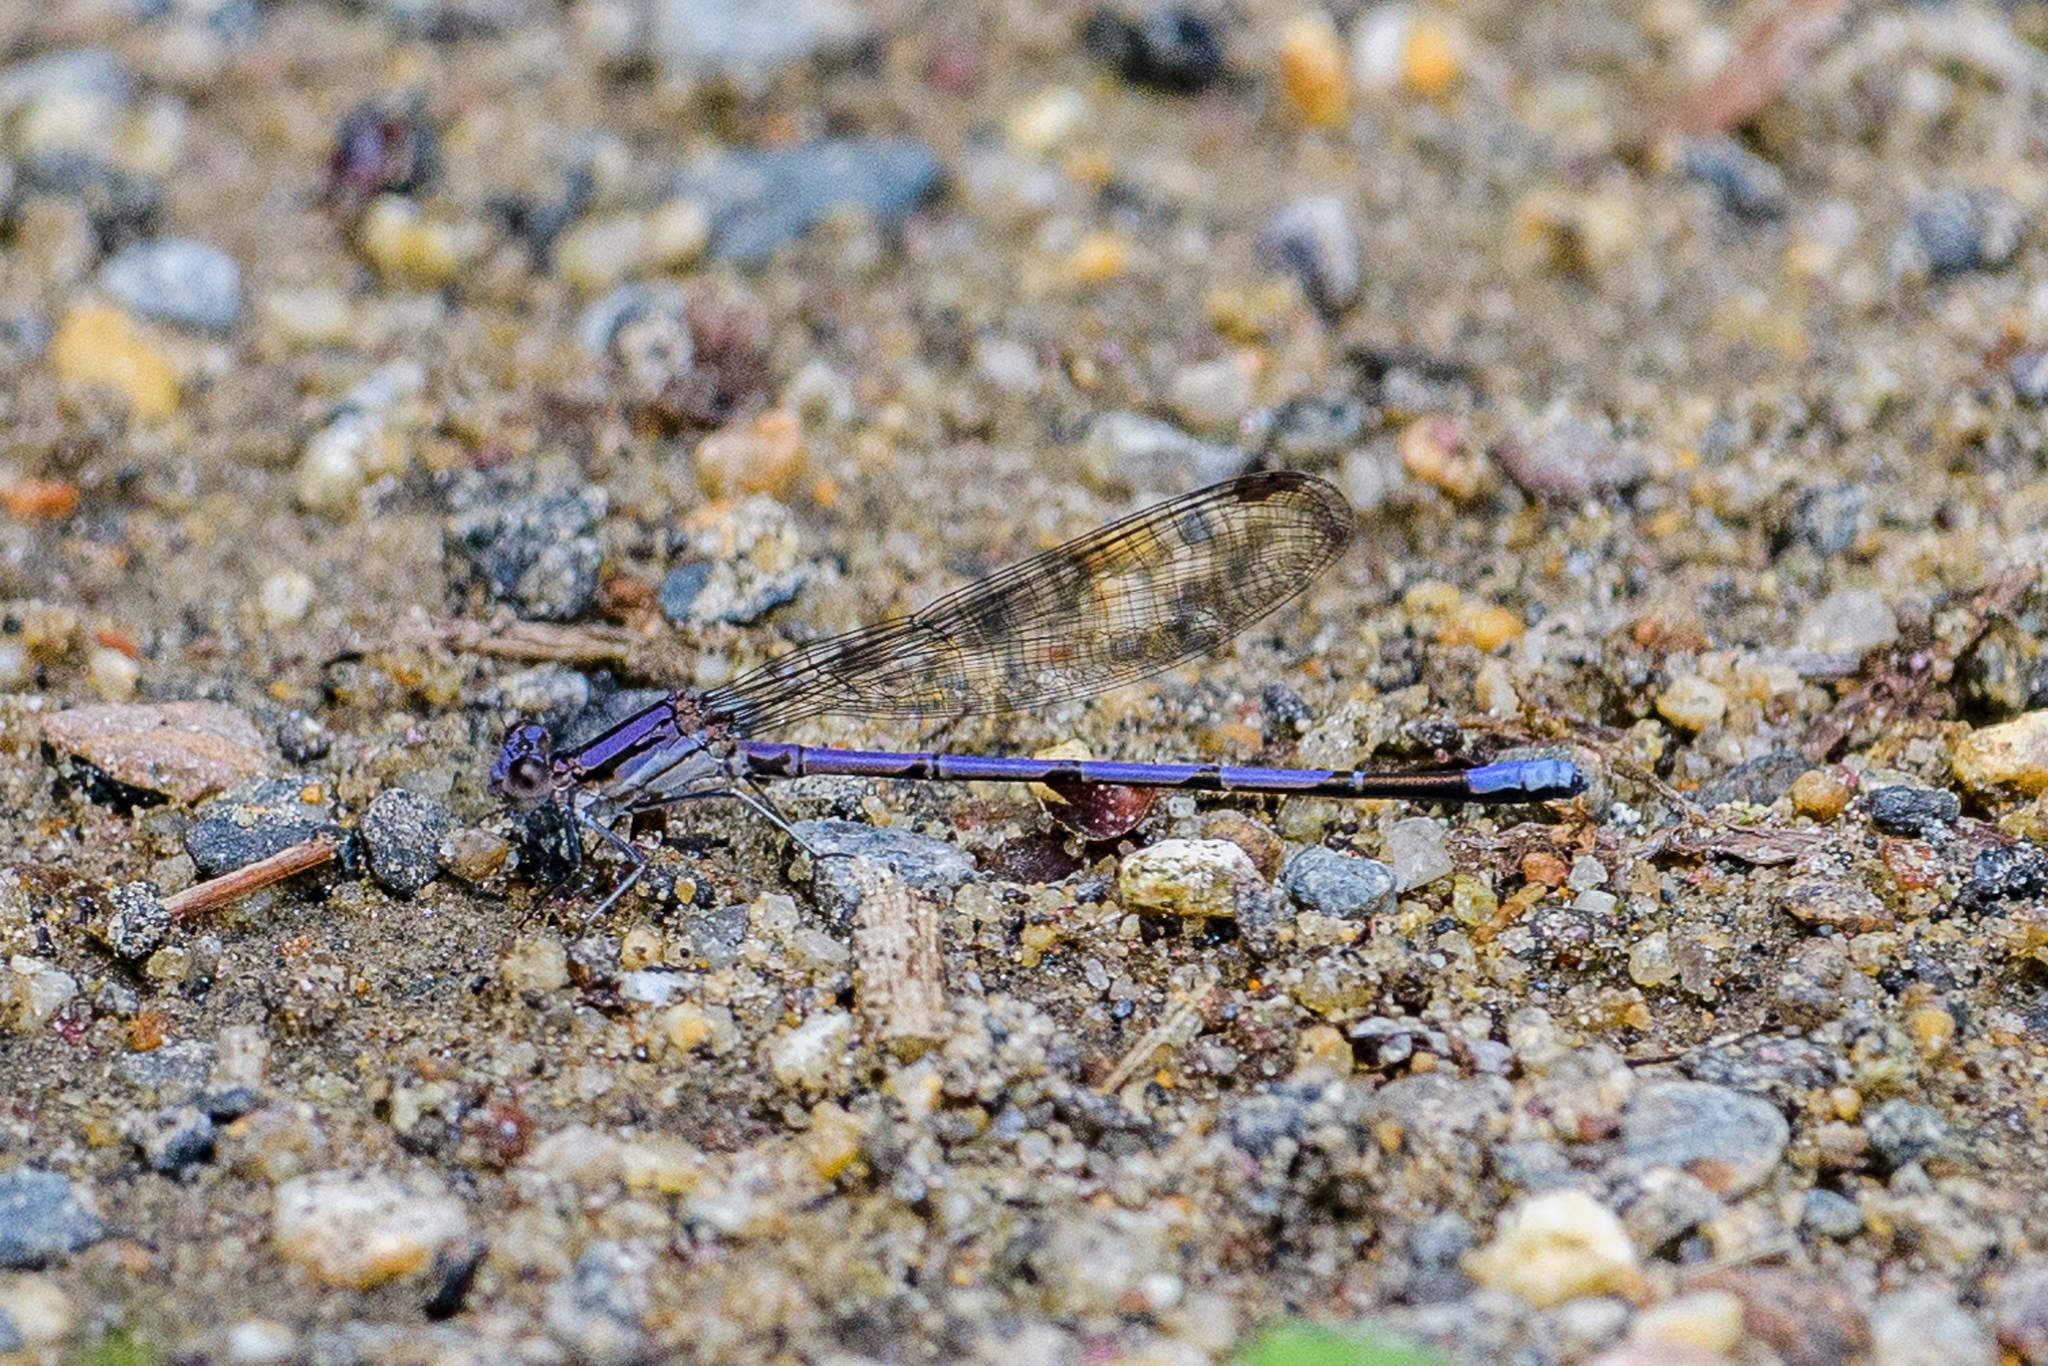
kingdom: Animalia
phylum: Arthropoda
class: Insecta
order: Odonata
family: Coenagrionidae
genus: Argia
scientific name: Argia fumipennis
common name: Variable dancer
